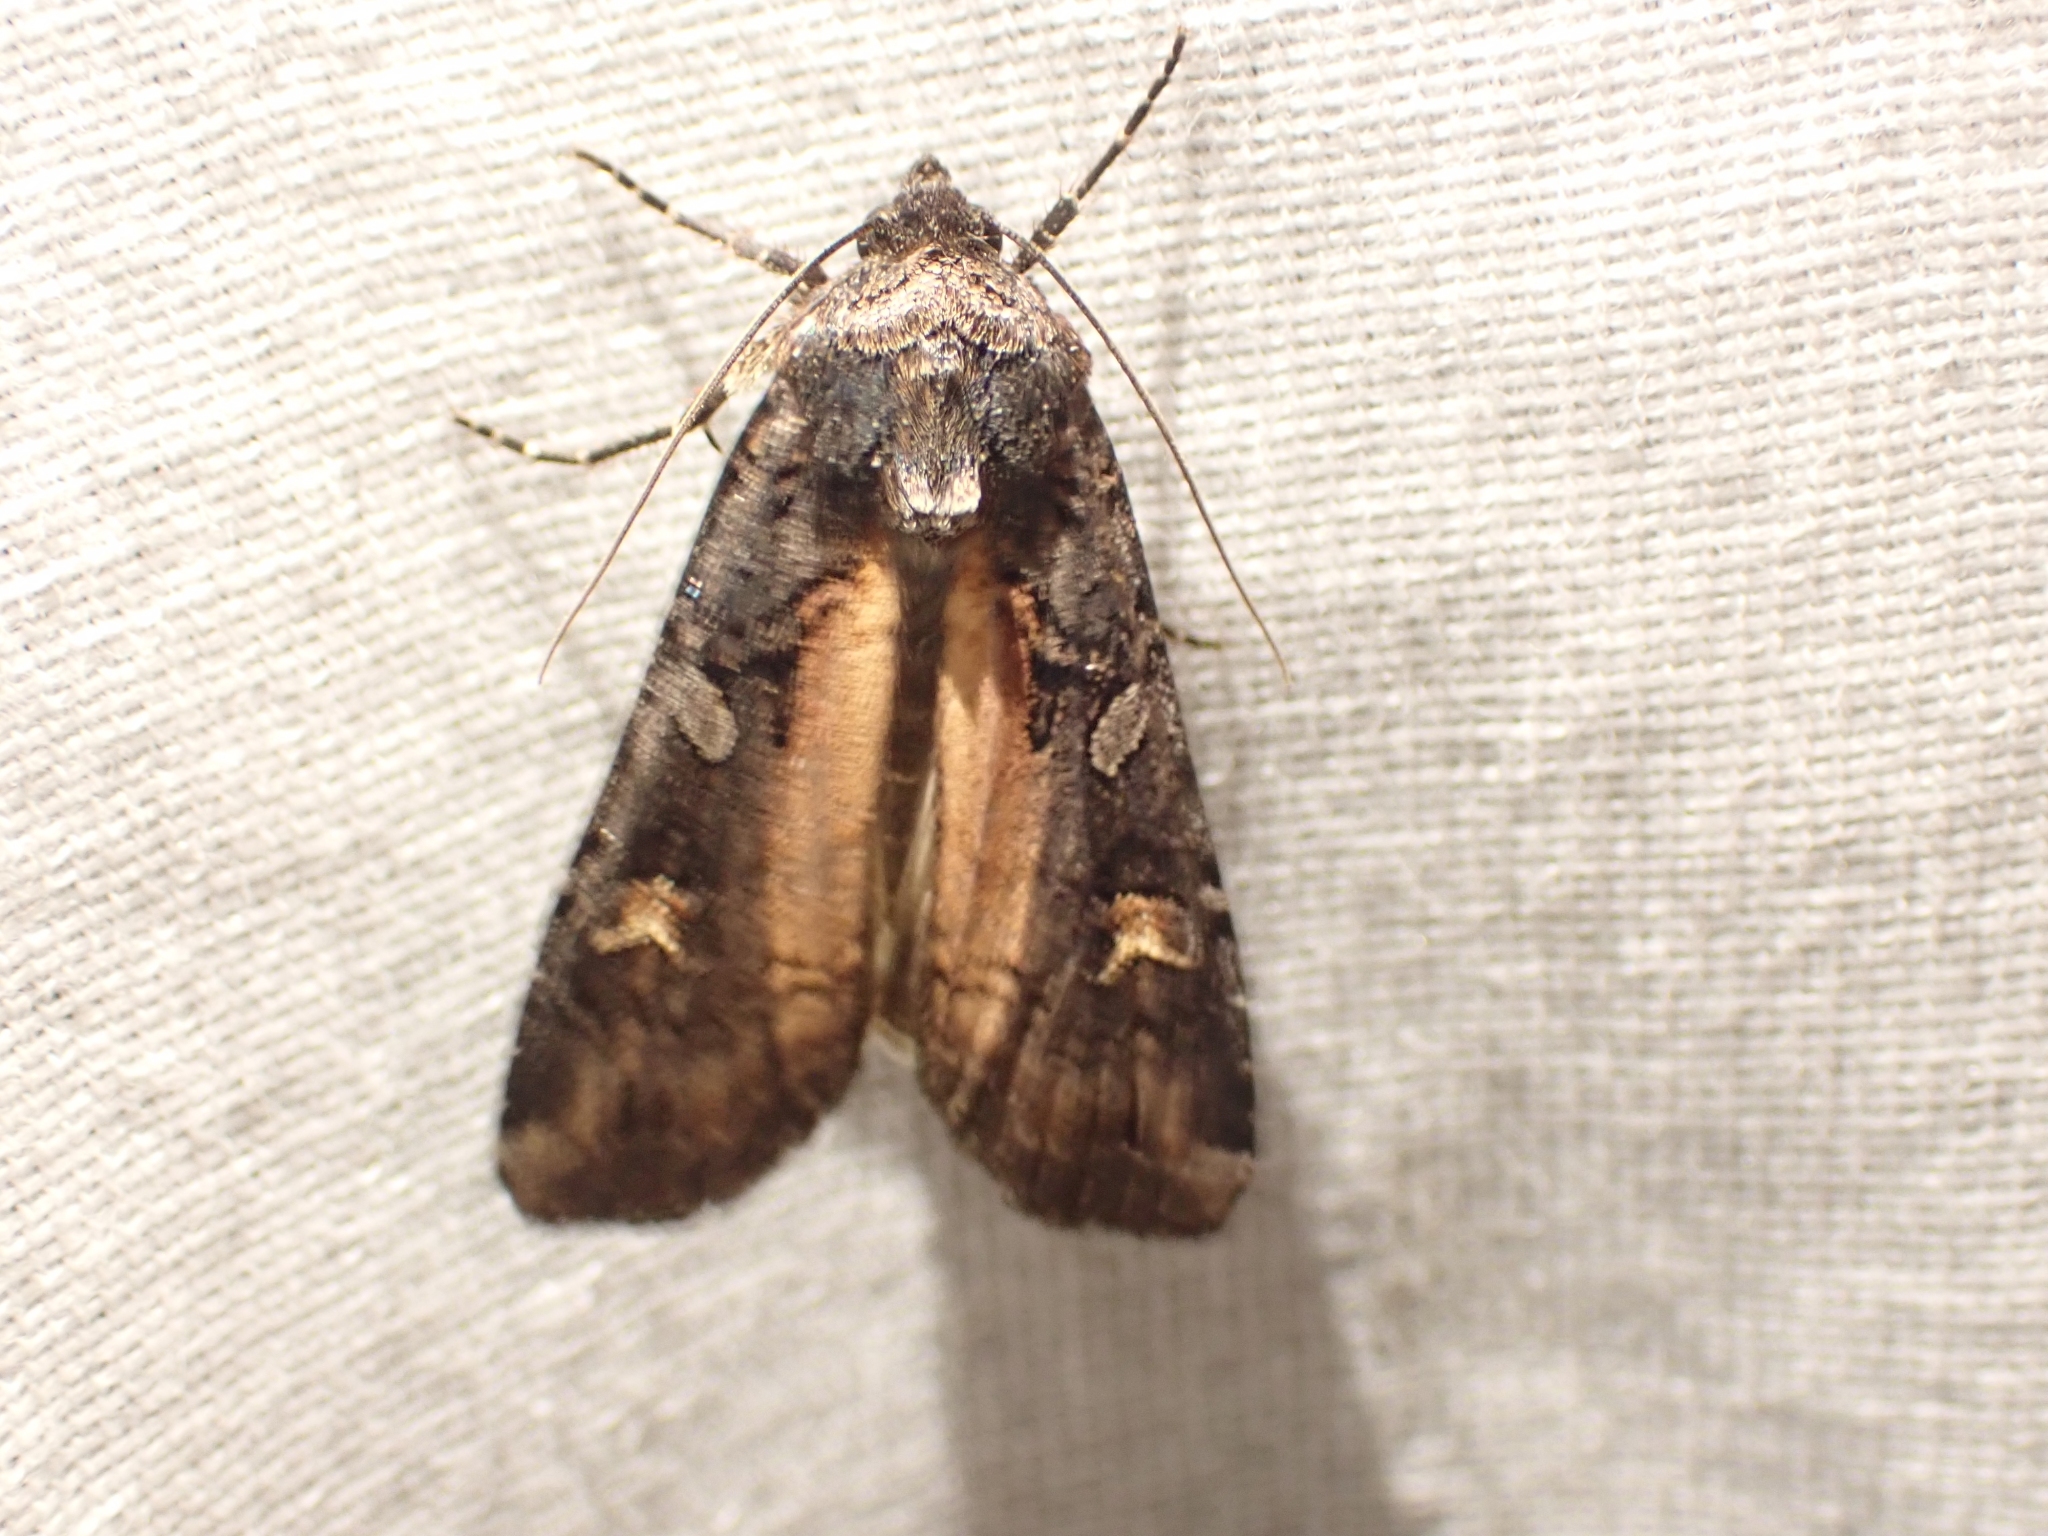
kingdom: Animalia
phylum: Arthropoda
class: Insecta
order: Lepidoptera
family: Noctuidae
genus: Actebia
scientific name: Actebia fennica
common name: Eversmann's rustic
